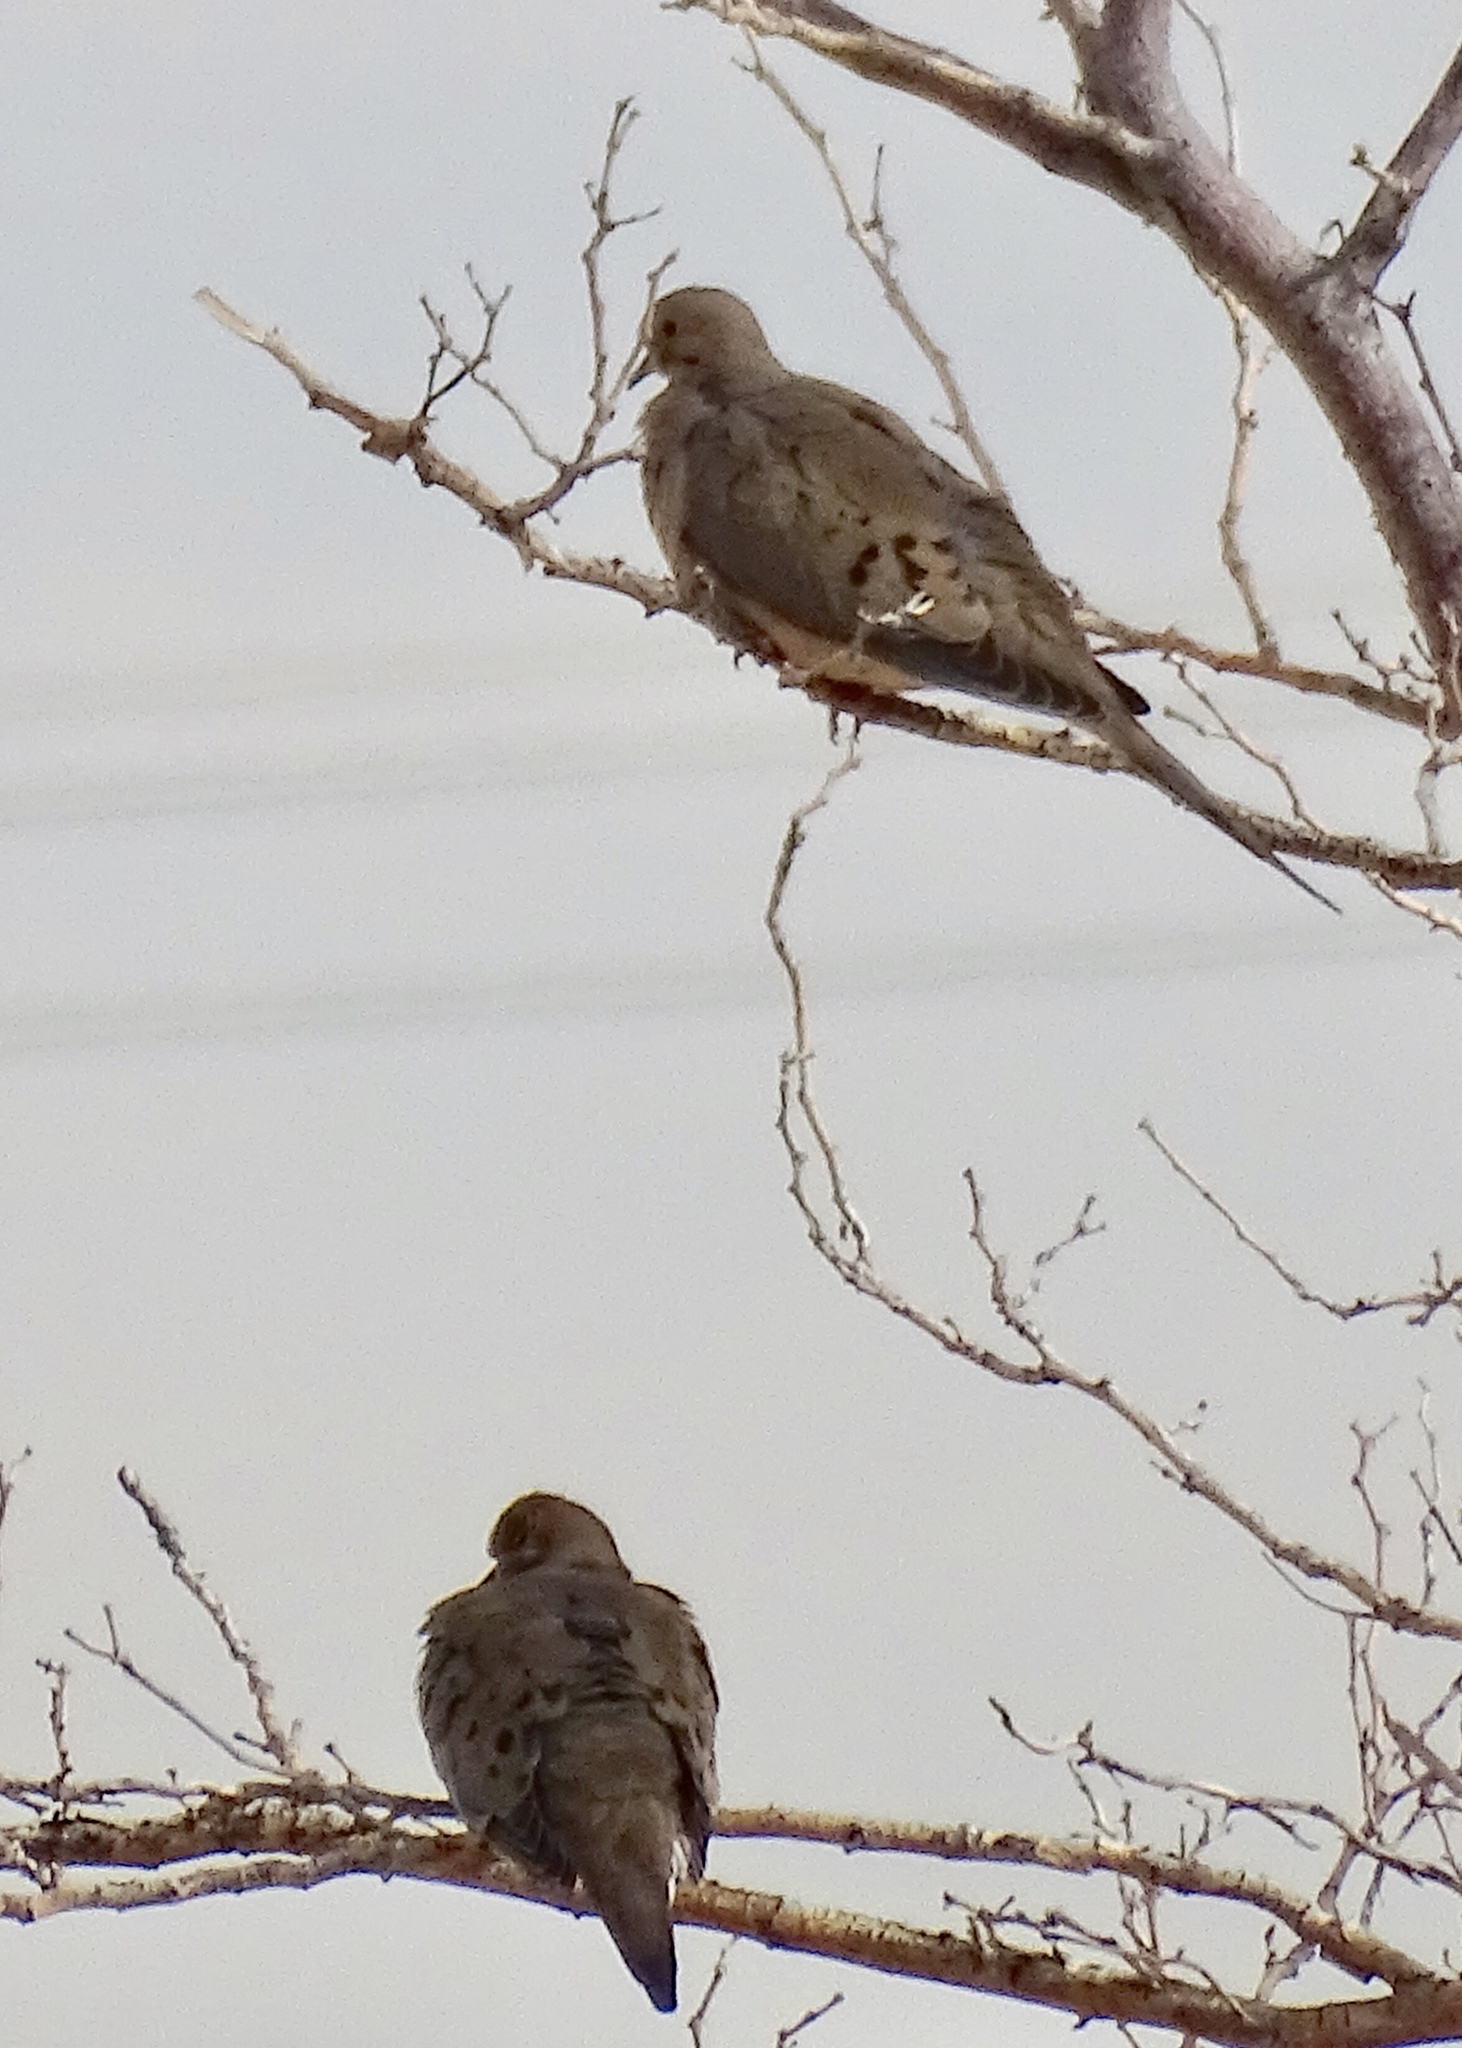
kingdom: Animalia
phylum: Chordata
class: Aves
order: Columbiformes
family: Columbidae
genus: Zenaida
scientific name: Zenaida macroura
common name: Mourning dove
